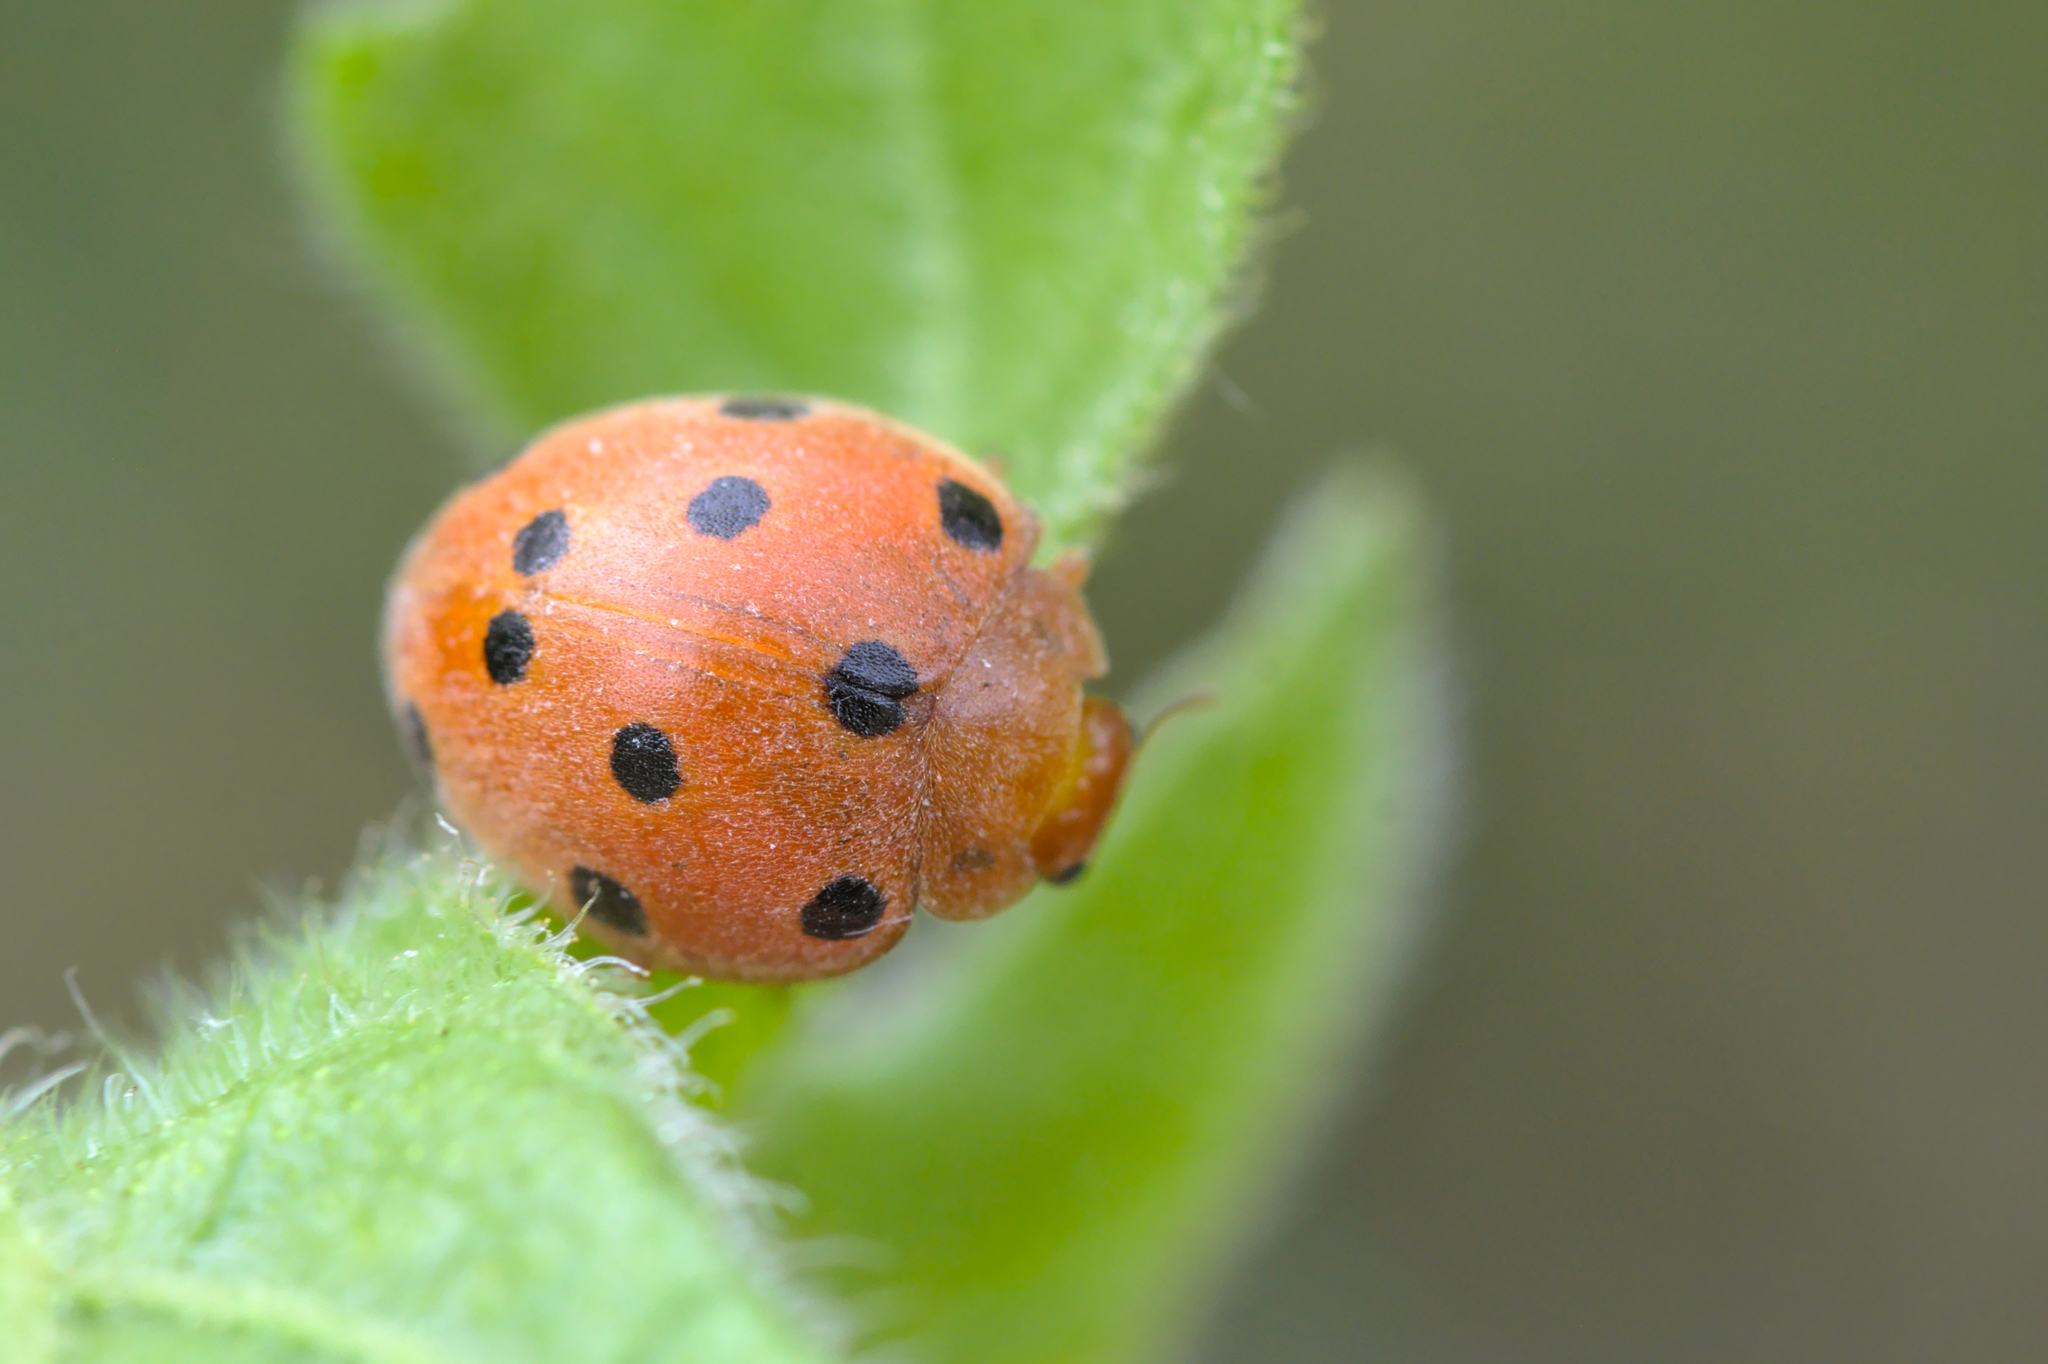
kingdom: Animalia
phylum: Arthropoda
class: Insecta
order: Coleoptera
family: Coccinellidae
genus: Henosepilachna
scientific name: Henosepilachna argus
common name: Bryony ladybird
